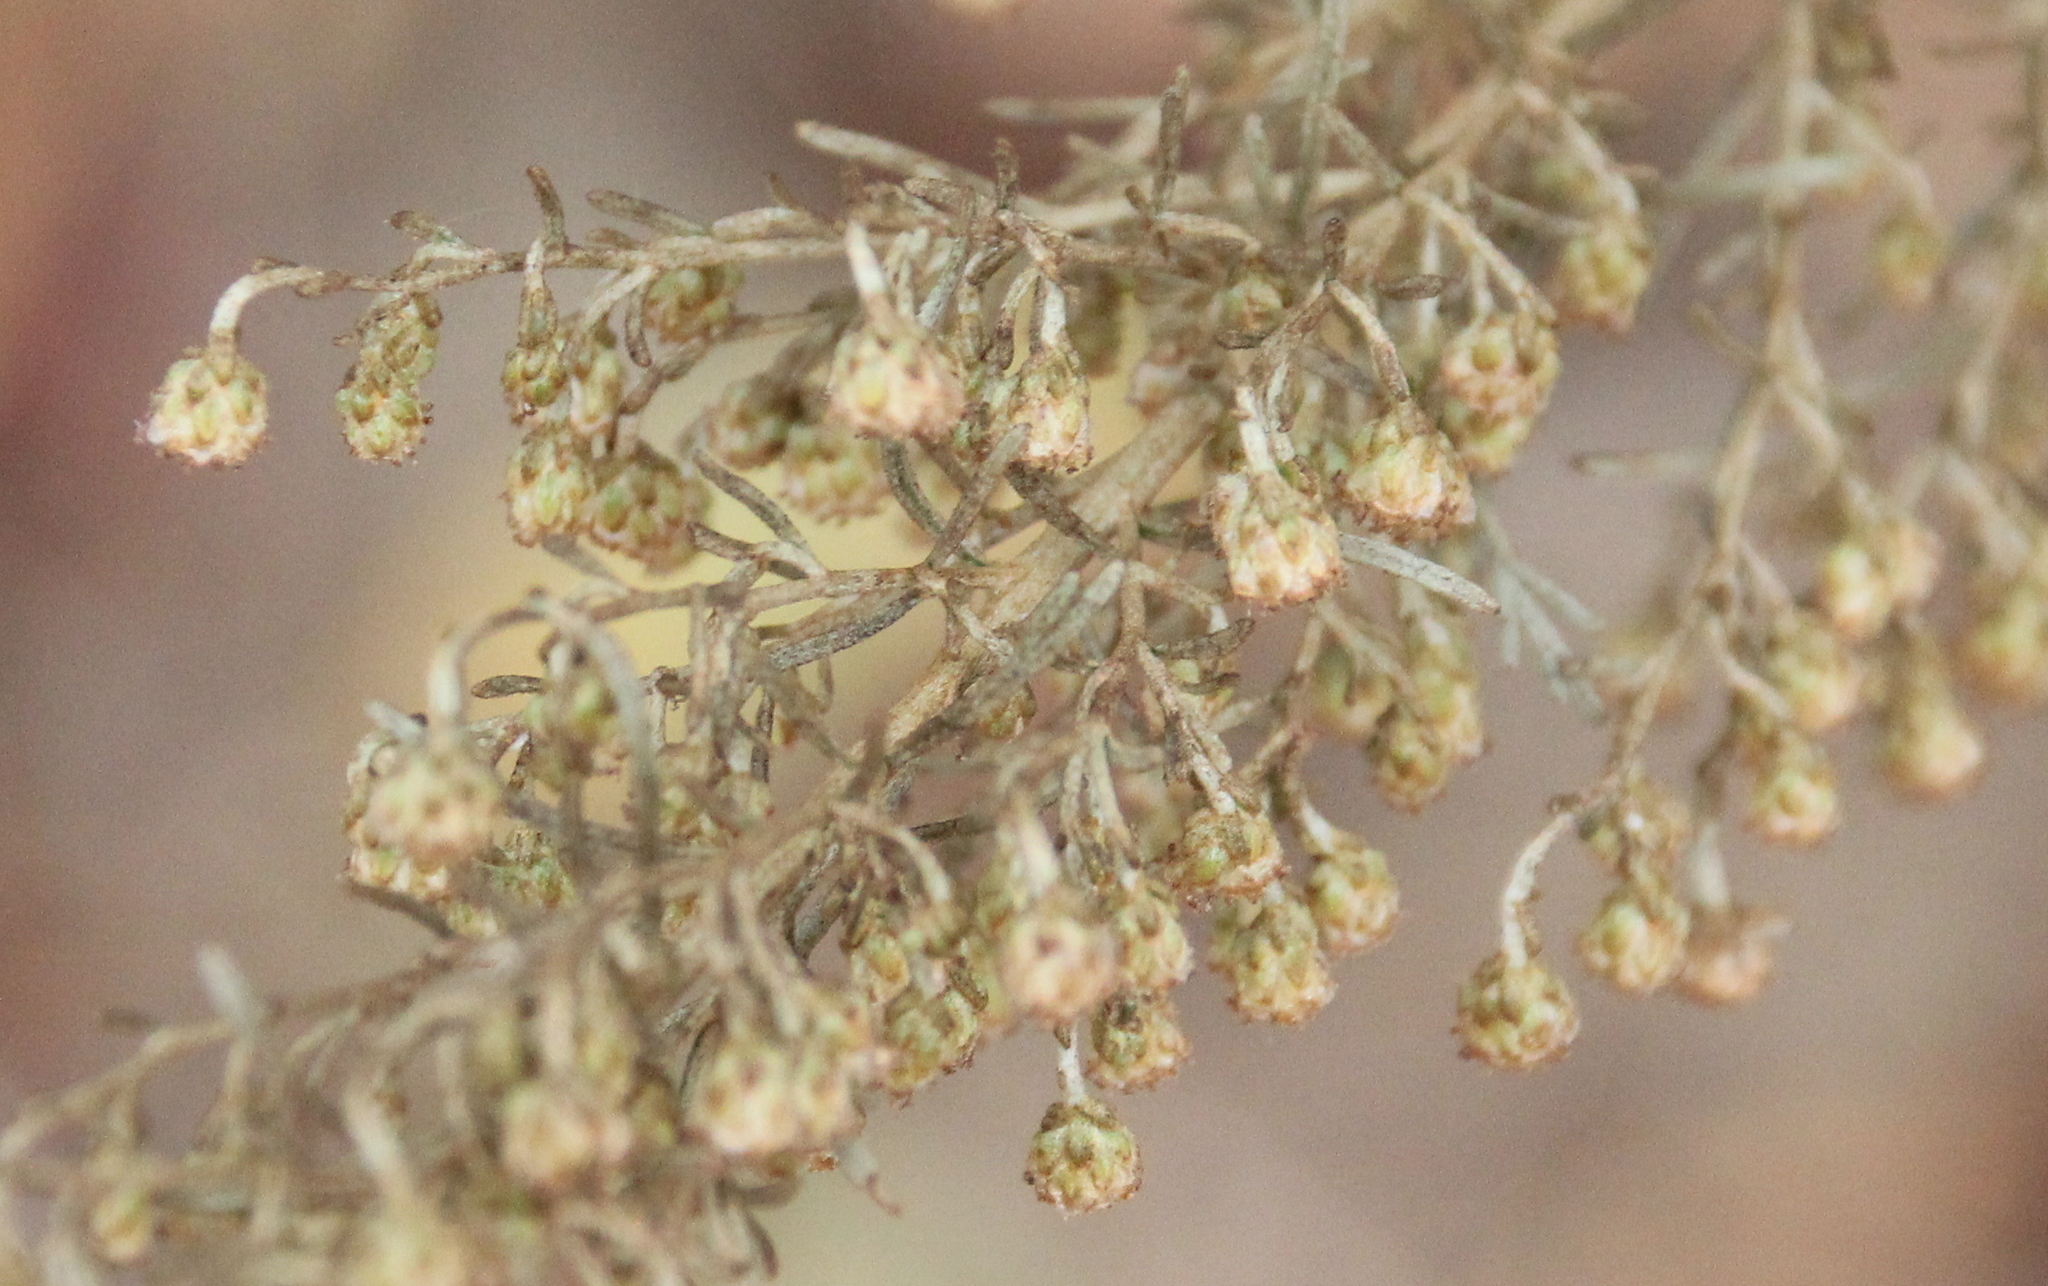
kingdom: Plantae
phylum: Tracheophyta
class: Magnoliopsida
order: Asterales
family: Asteraceae
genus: Artemisia
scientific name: Artemisia californica
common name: California sagebrush
